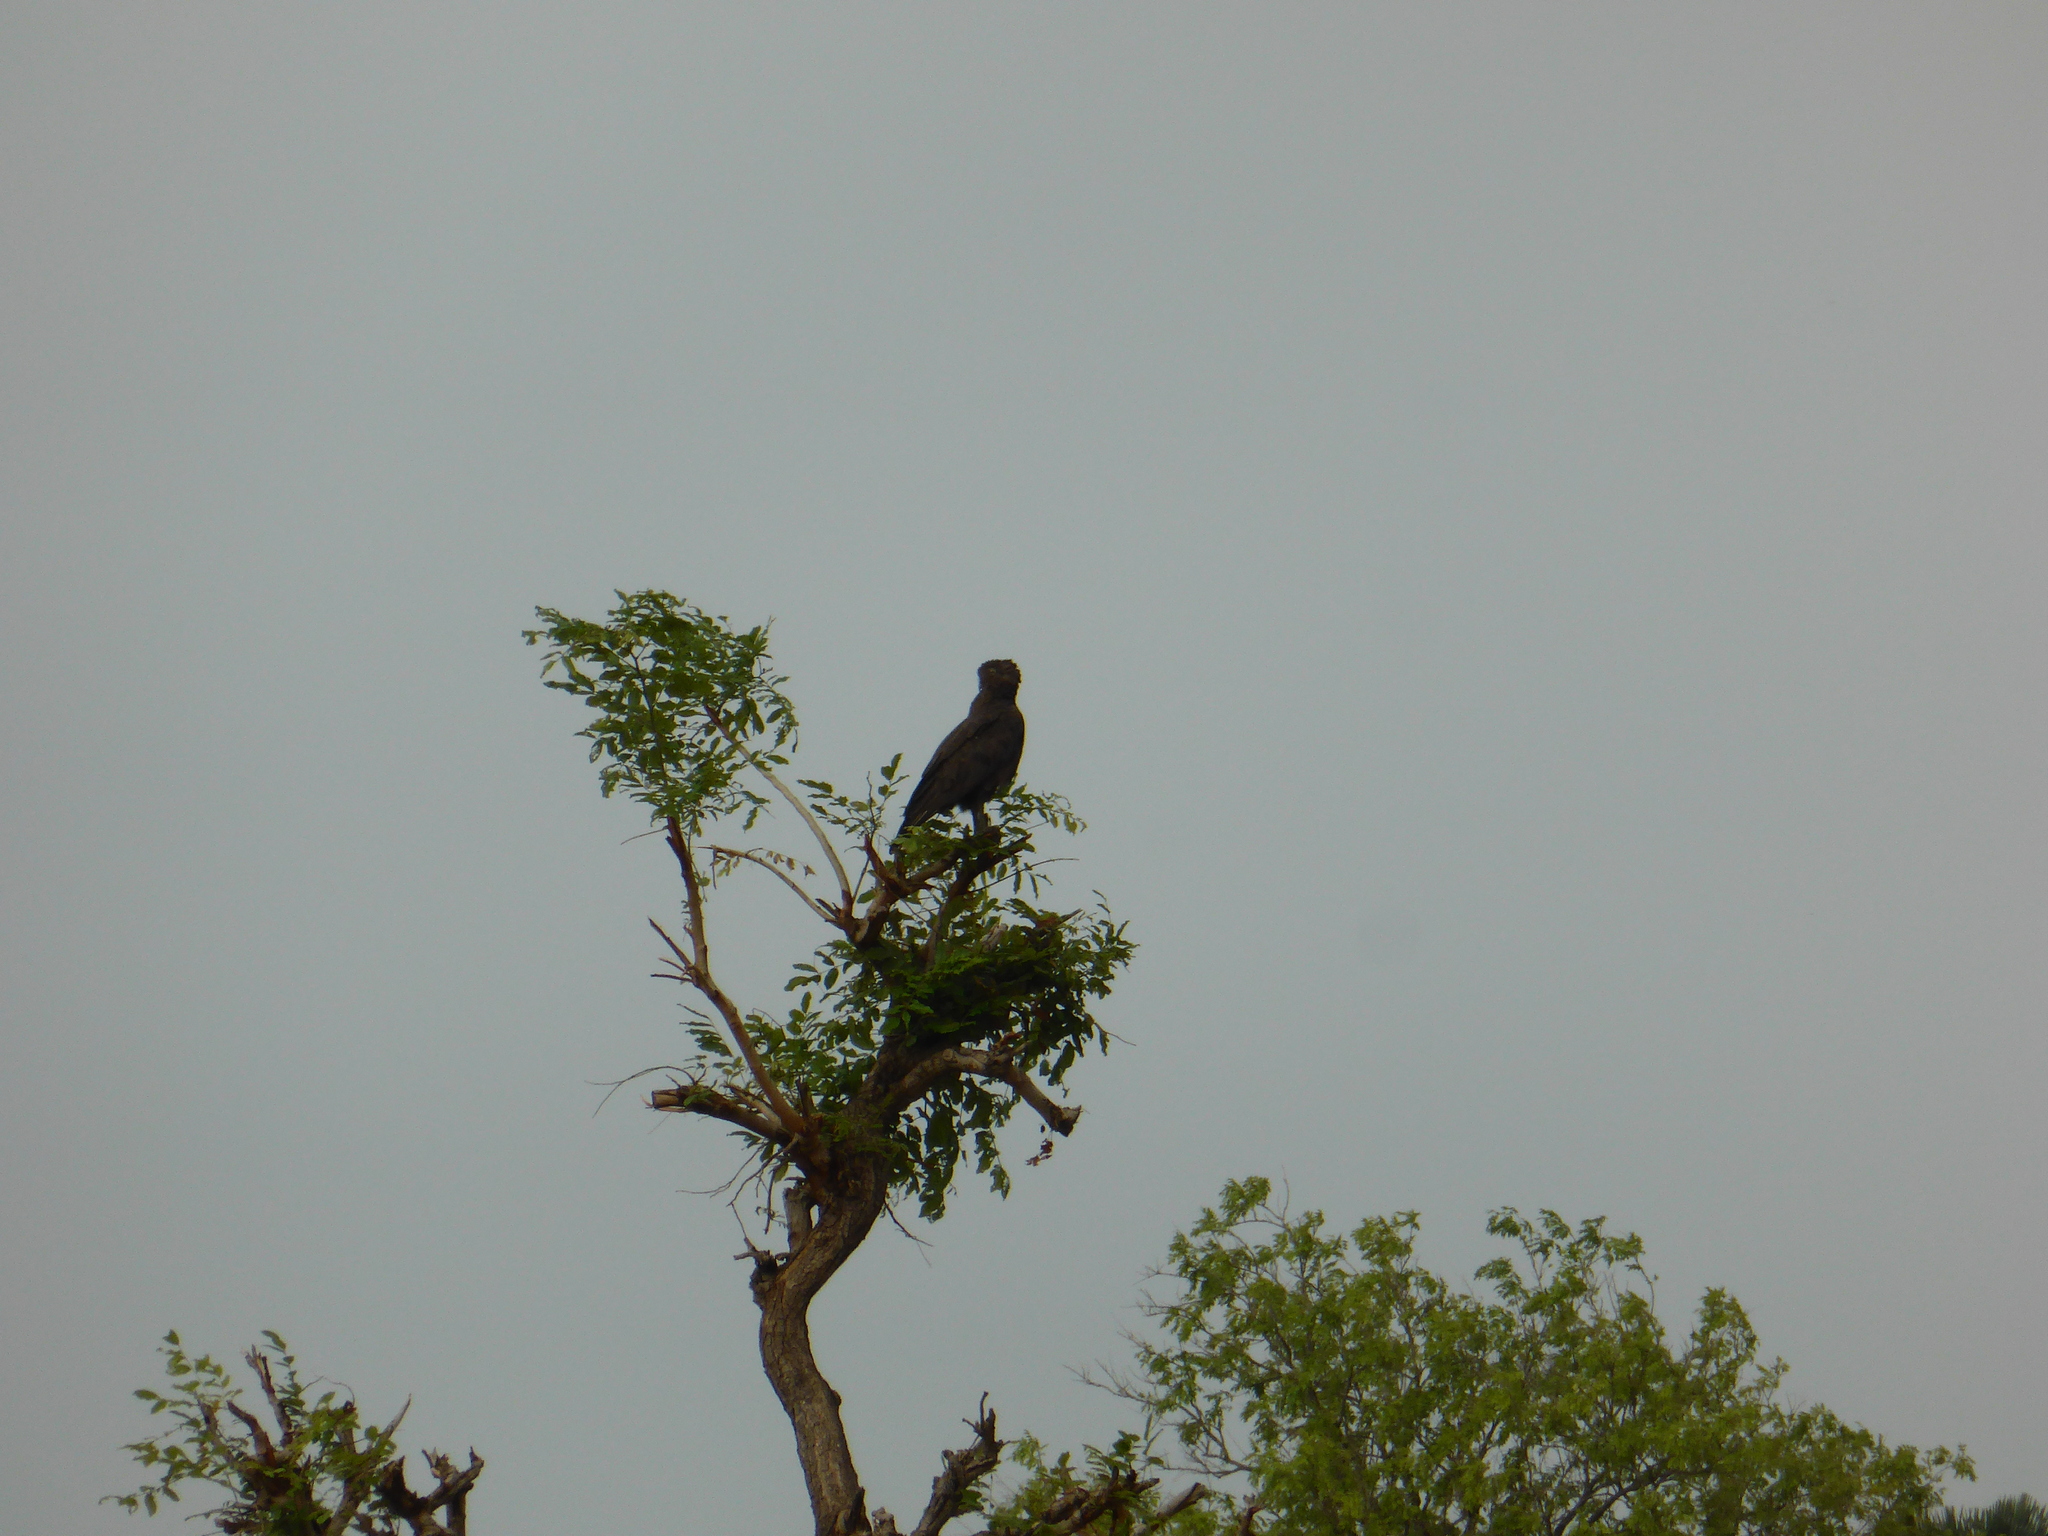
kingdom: Animalia
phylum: Chordata
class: Aves
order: Accipitriformes
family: Accipitridae
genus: Circaetus
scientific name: Circaetus cinereus
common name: Brown snake eagle
